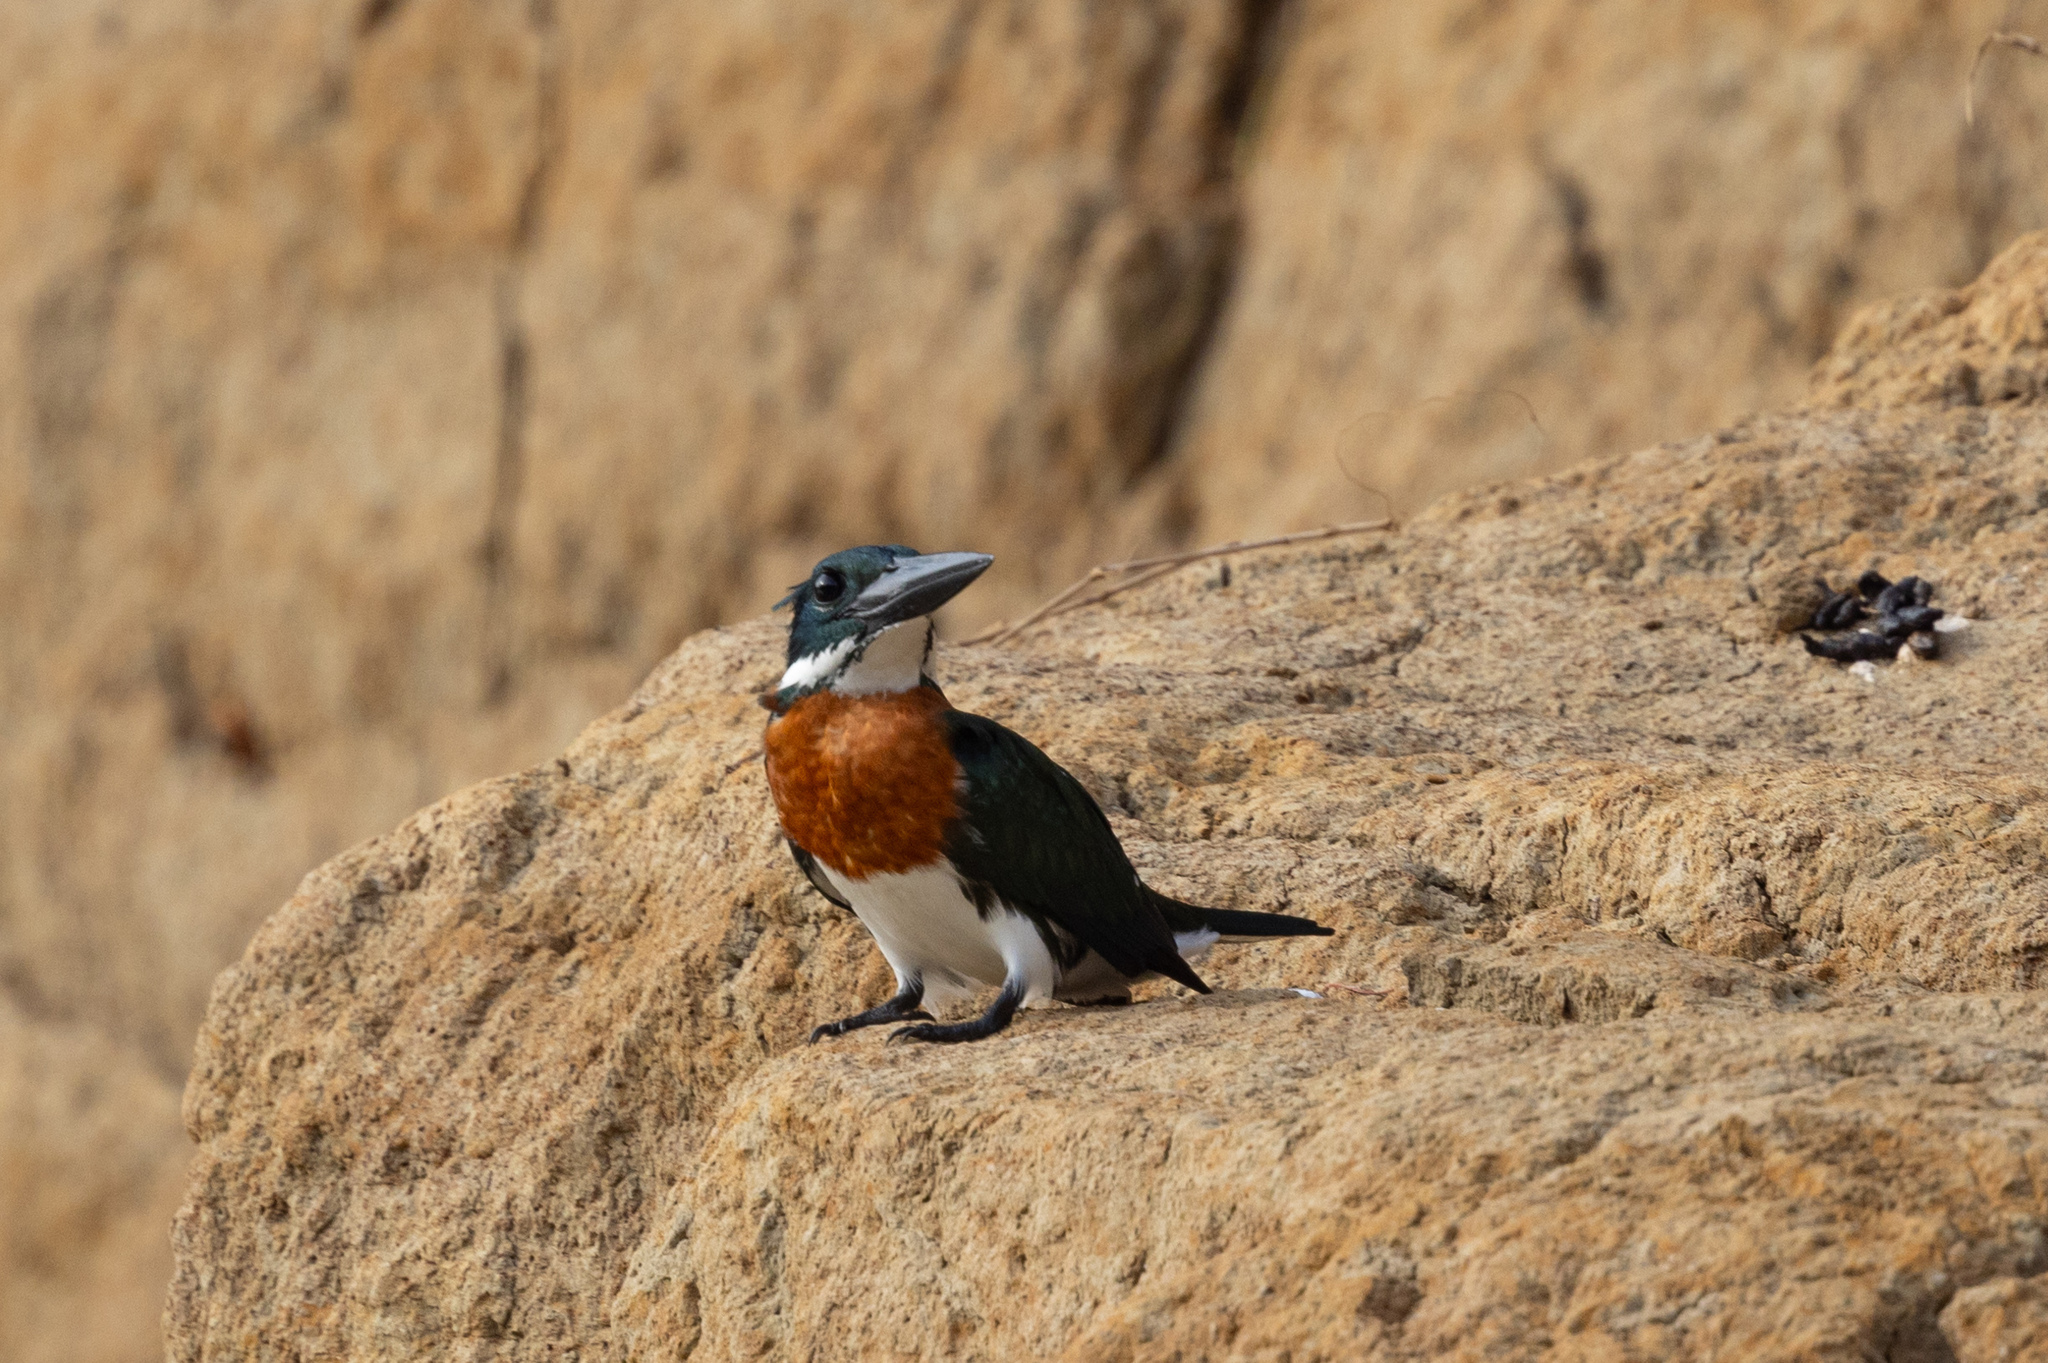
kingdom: Animalia
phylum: Chordata
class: Aves
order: Coraciiformes
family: Alcedinidae
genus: Chloroceryle
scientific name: Chloroceryle amazona
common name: Amazon kingfisher
